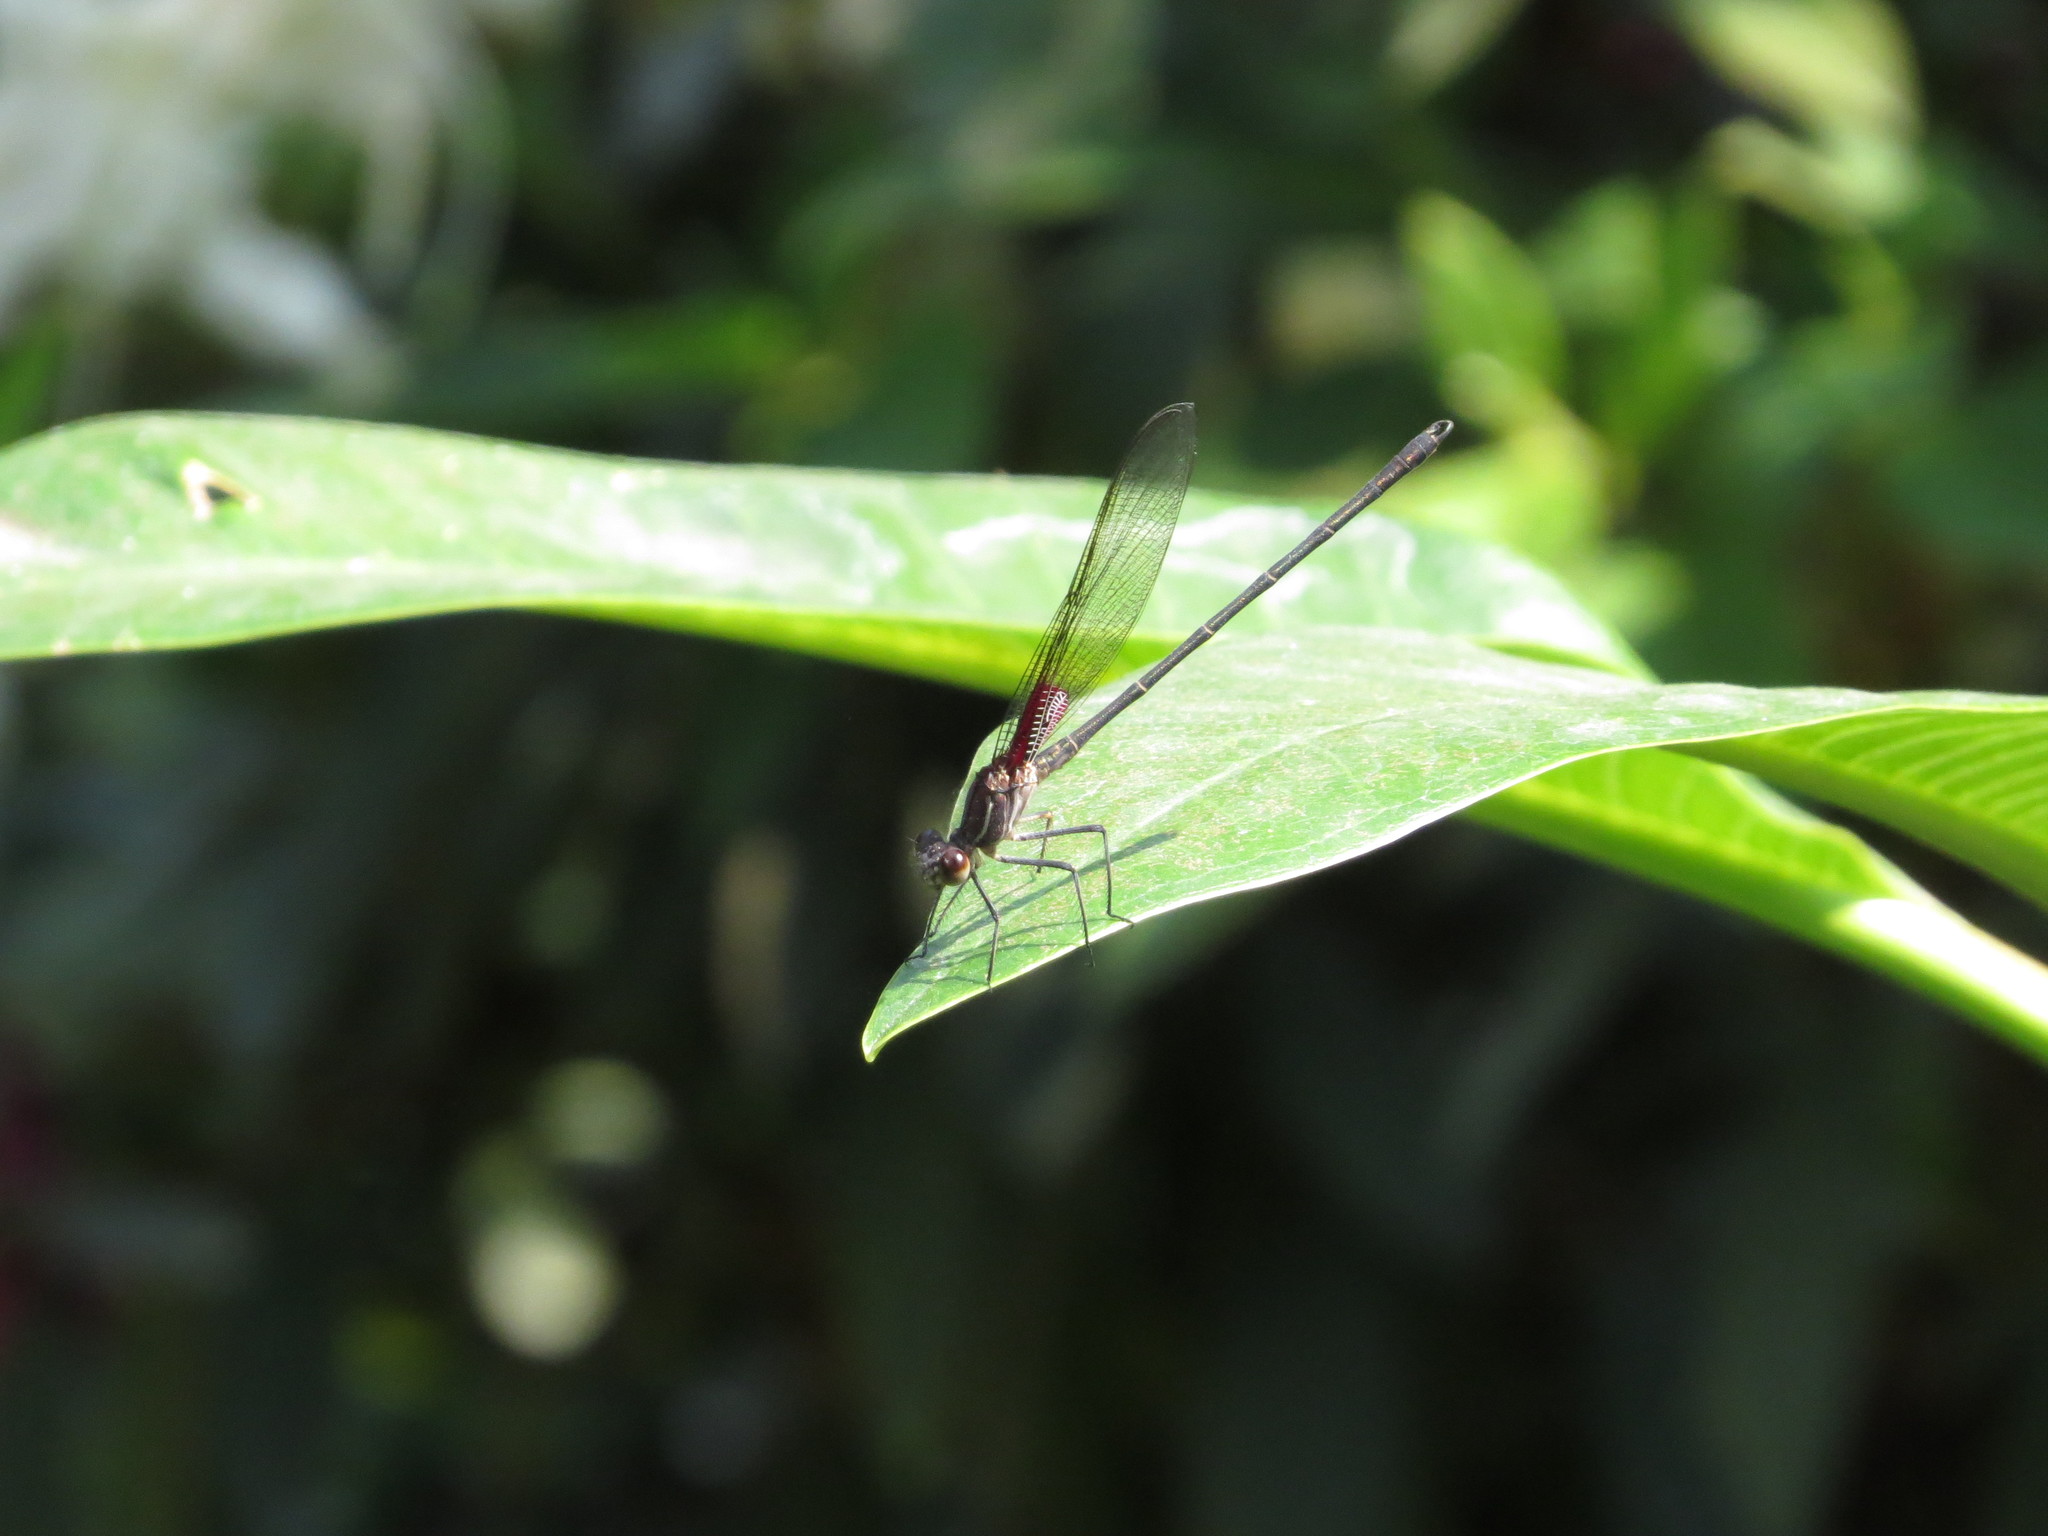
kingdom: Animalia
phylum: Arthropoda
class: Insecta
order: Odonata
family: Calopterygidae
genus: Hetaerina
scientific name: Hetaerina vulnerata
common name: Canyon rubyspot
